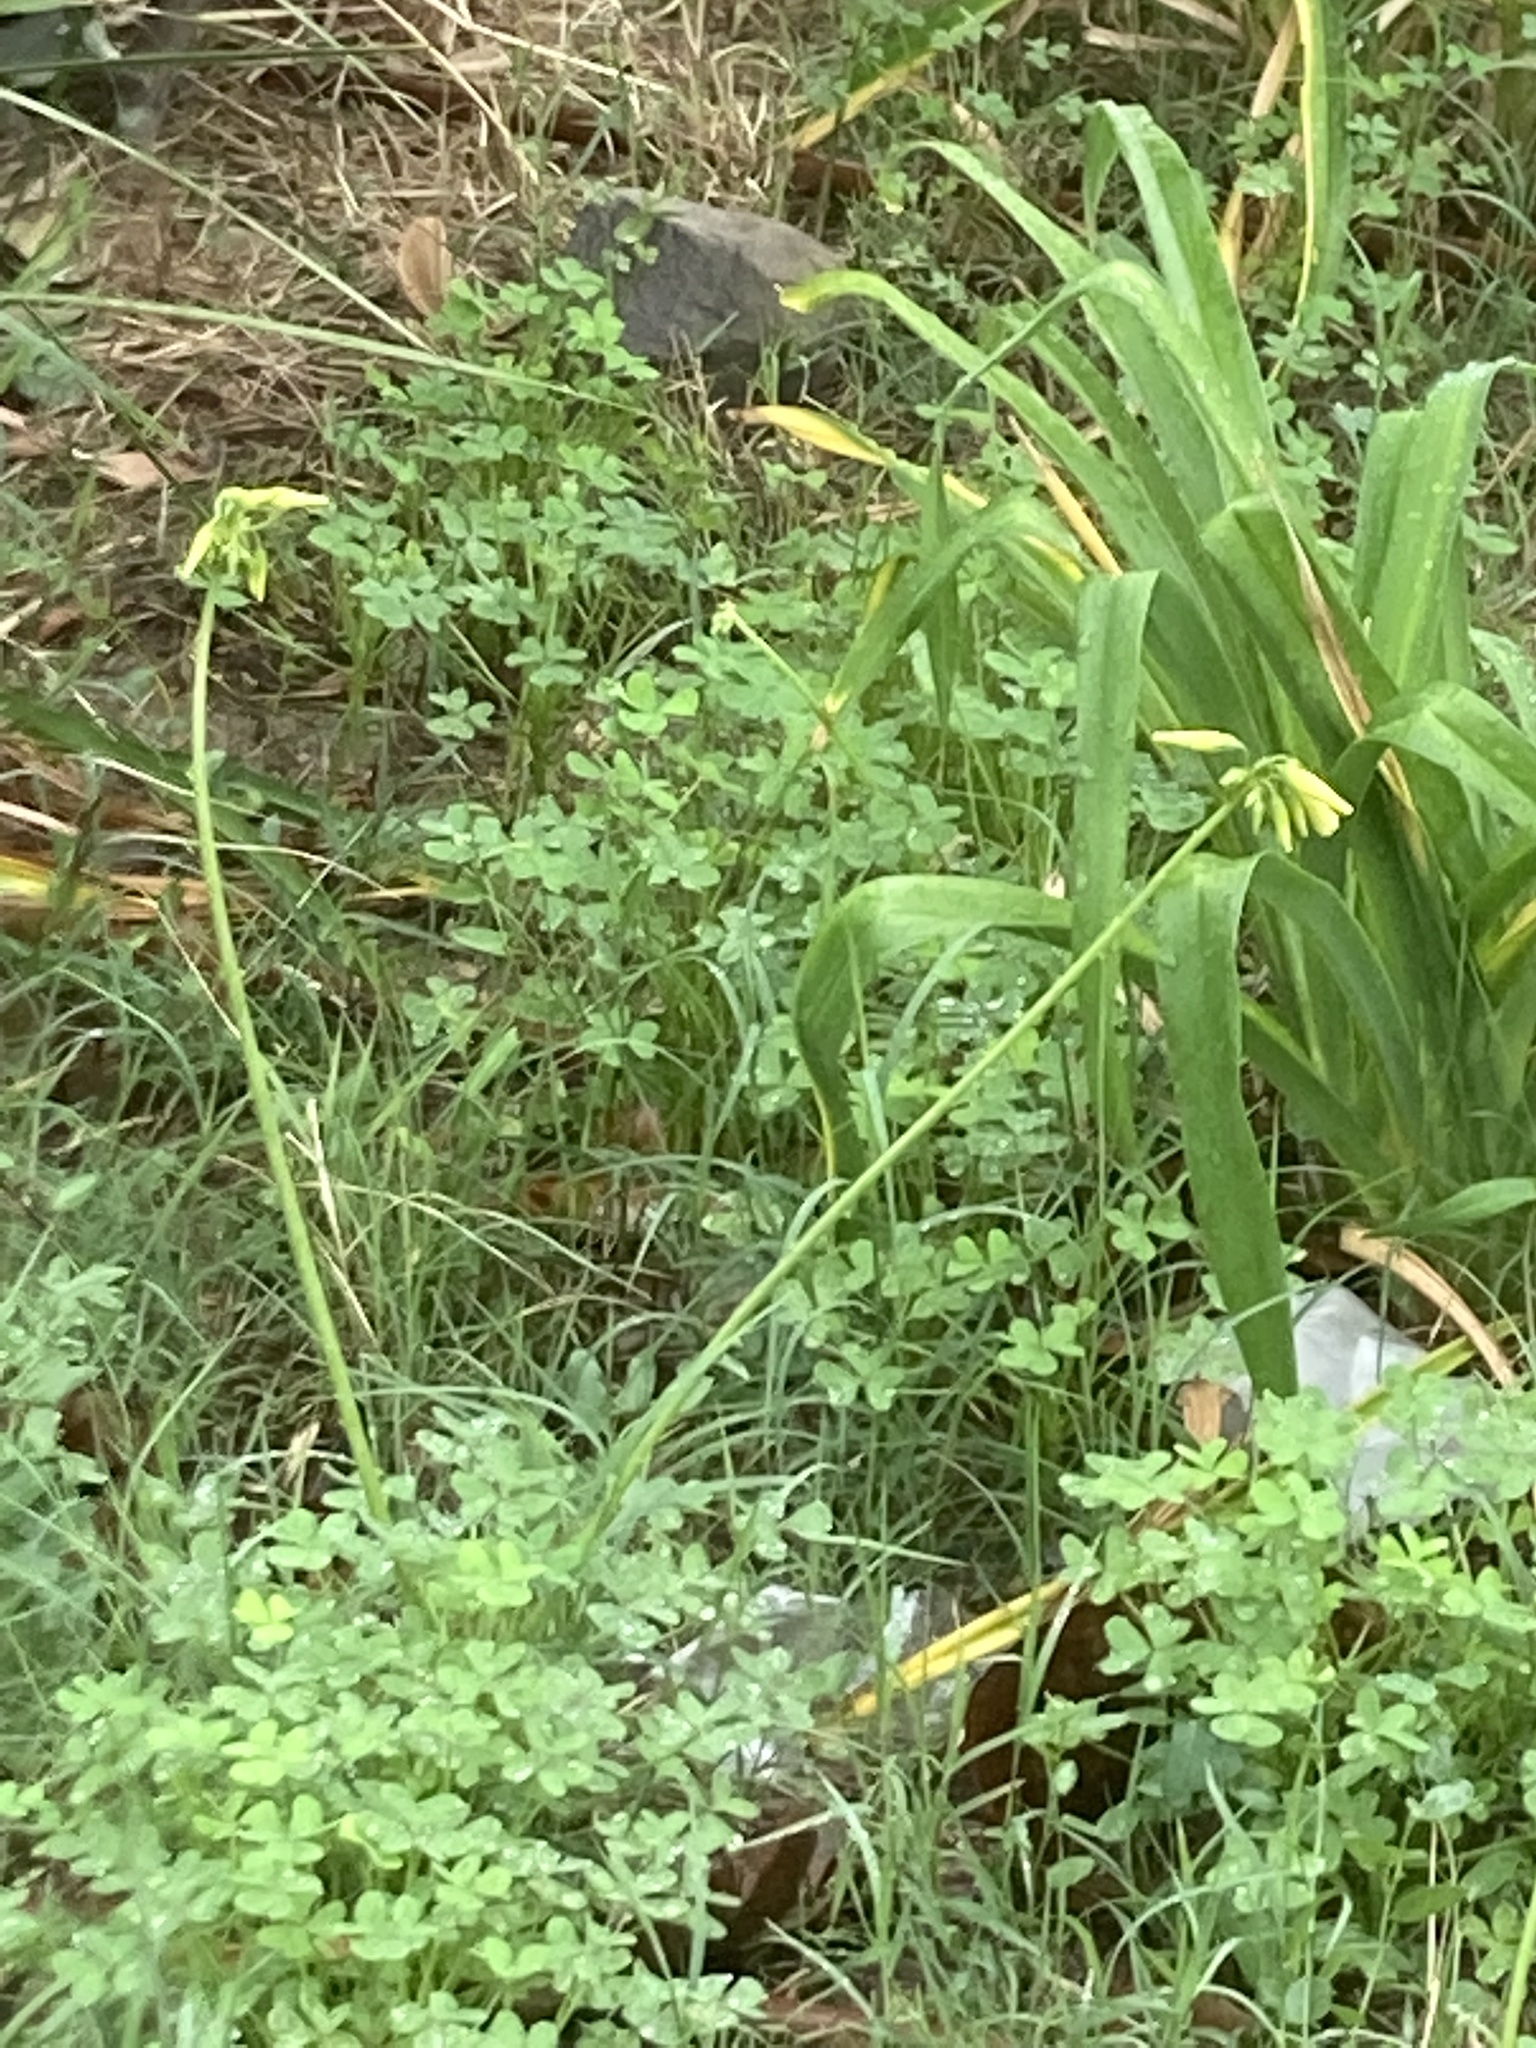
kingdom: Plantae
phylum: Tracheophyta
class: Magnoliopsida
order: Oxalidales
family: Oxalidaceae
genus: Oxalis
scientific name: Oxalis pes-caprae
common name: Bermuda-buttercup
